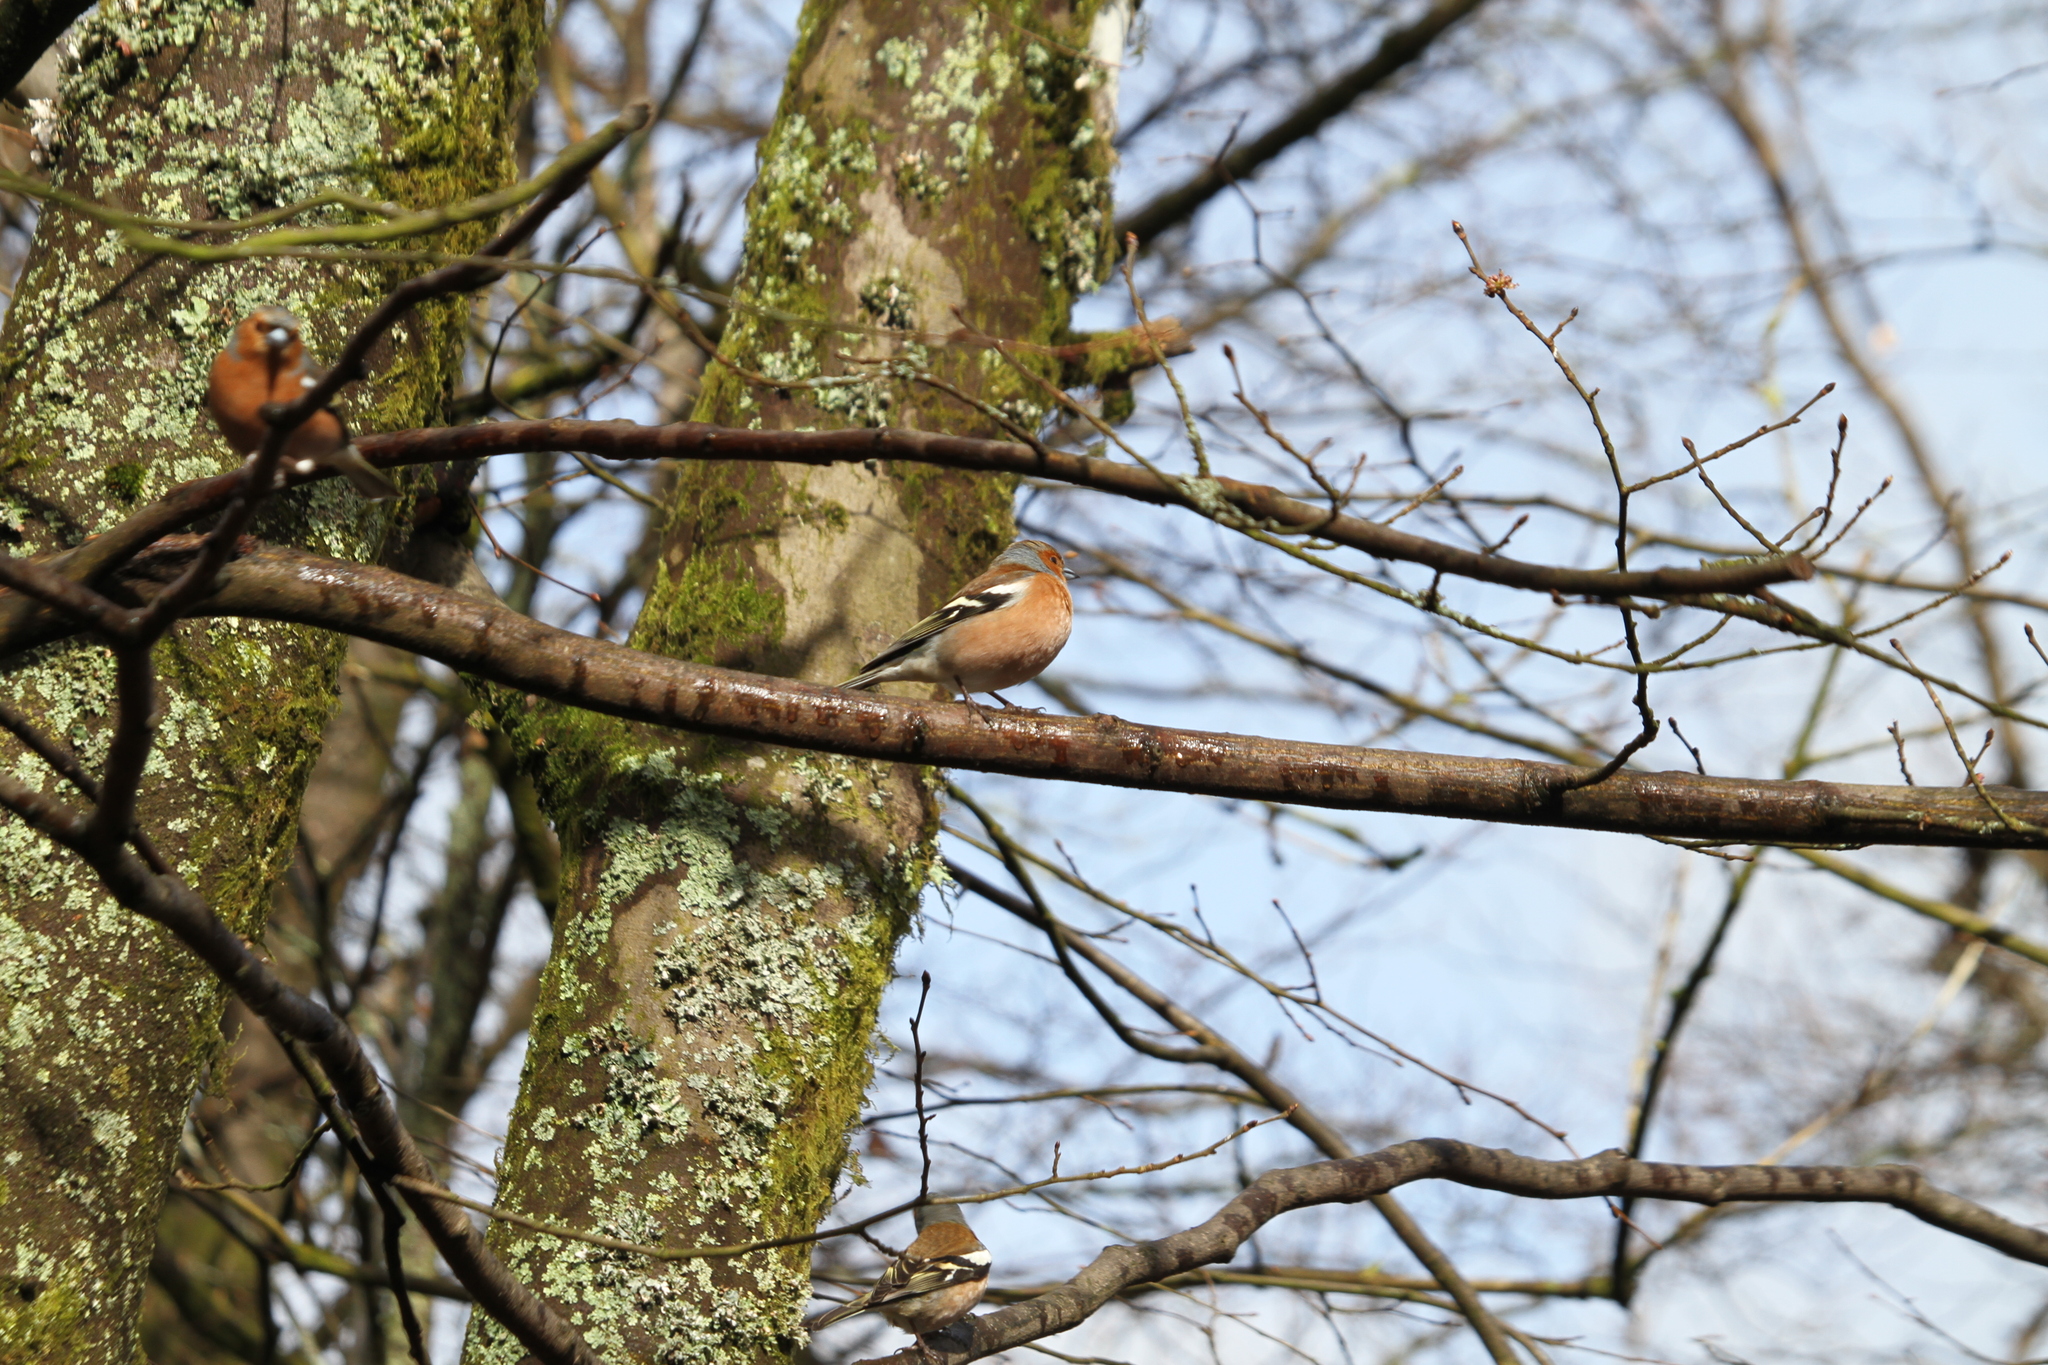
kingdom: Animalia
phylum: Chordata
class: Aves
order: Passeriformes
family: Fringillidae
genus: Fringilla
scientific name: Fringilla coelebs
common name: Common chaffinch
